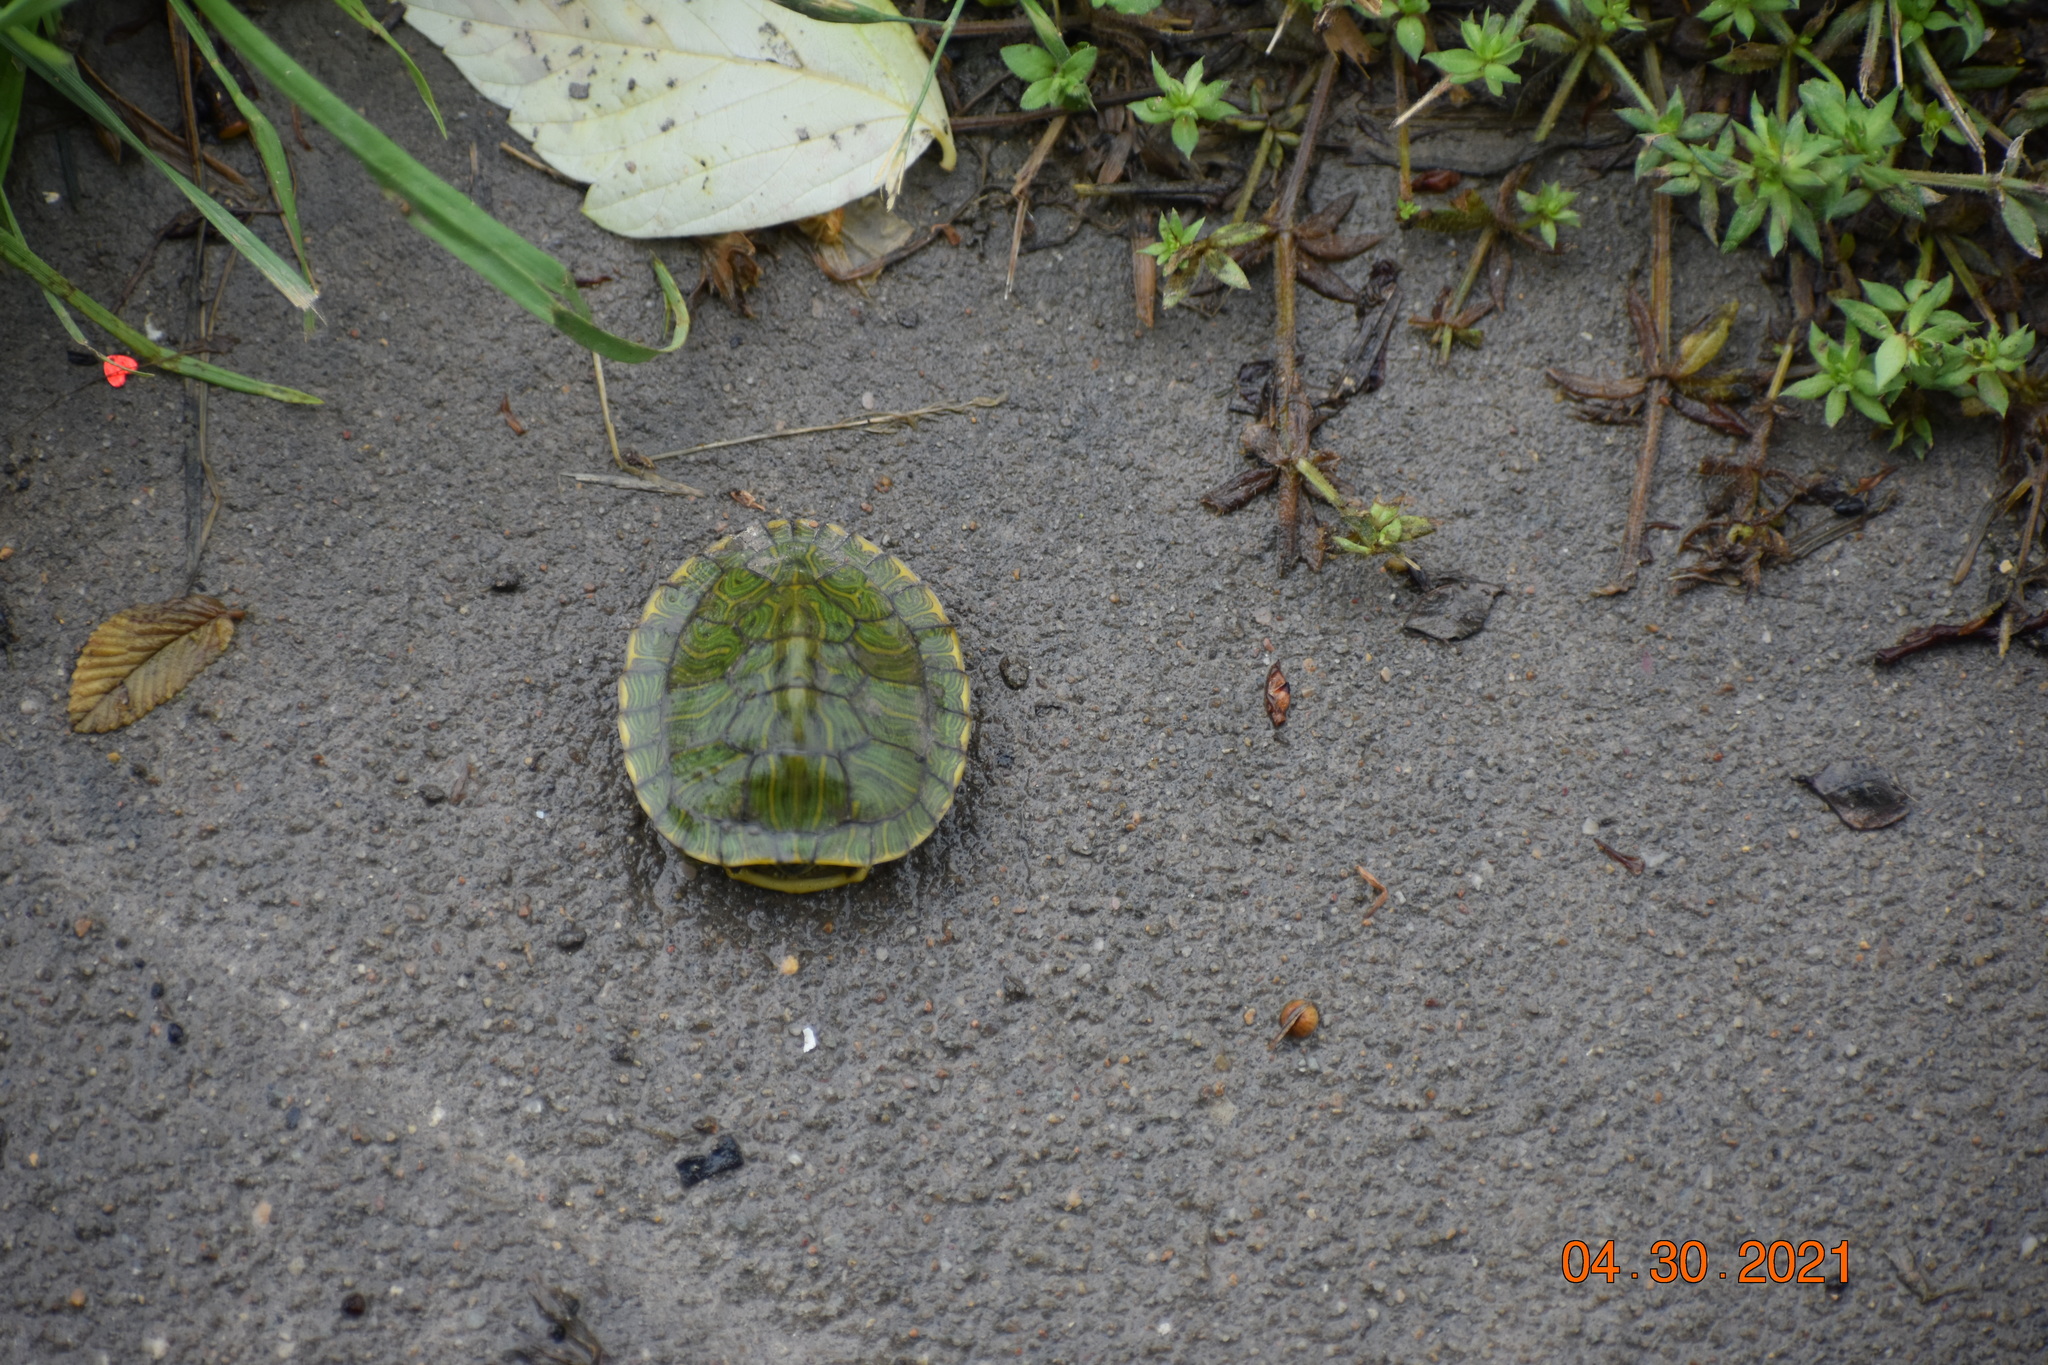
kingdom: Animalia
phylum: Chordata
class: Testudines
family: Emydidae
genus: Trachemys
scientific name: Trachemys scripta
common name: Slider
